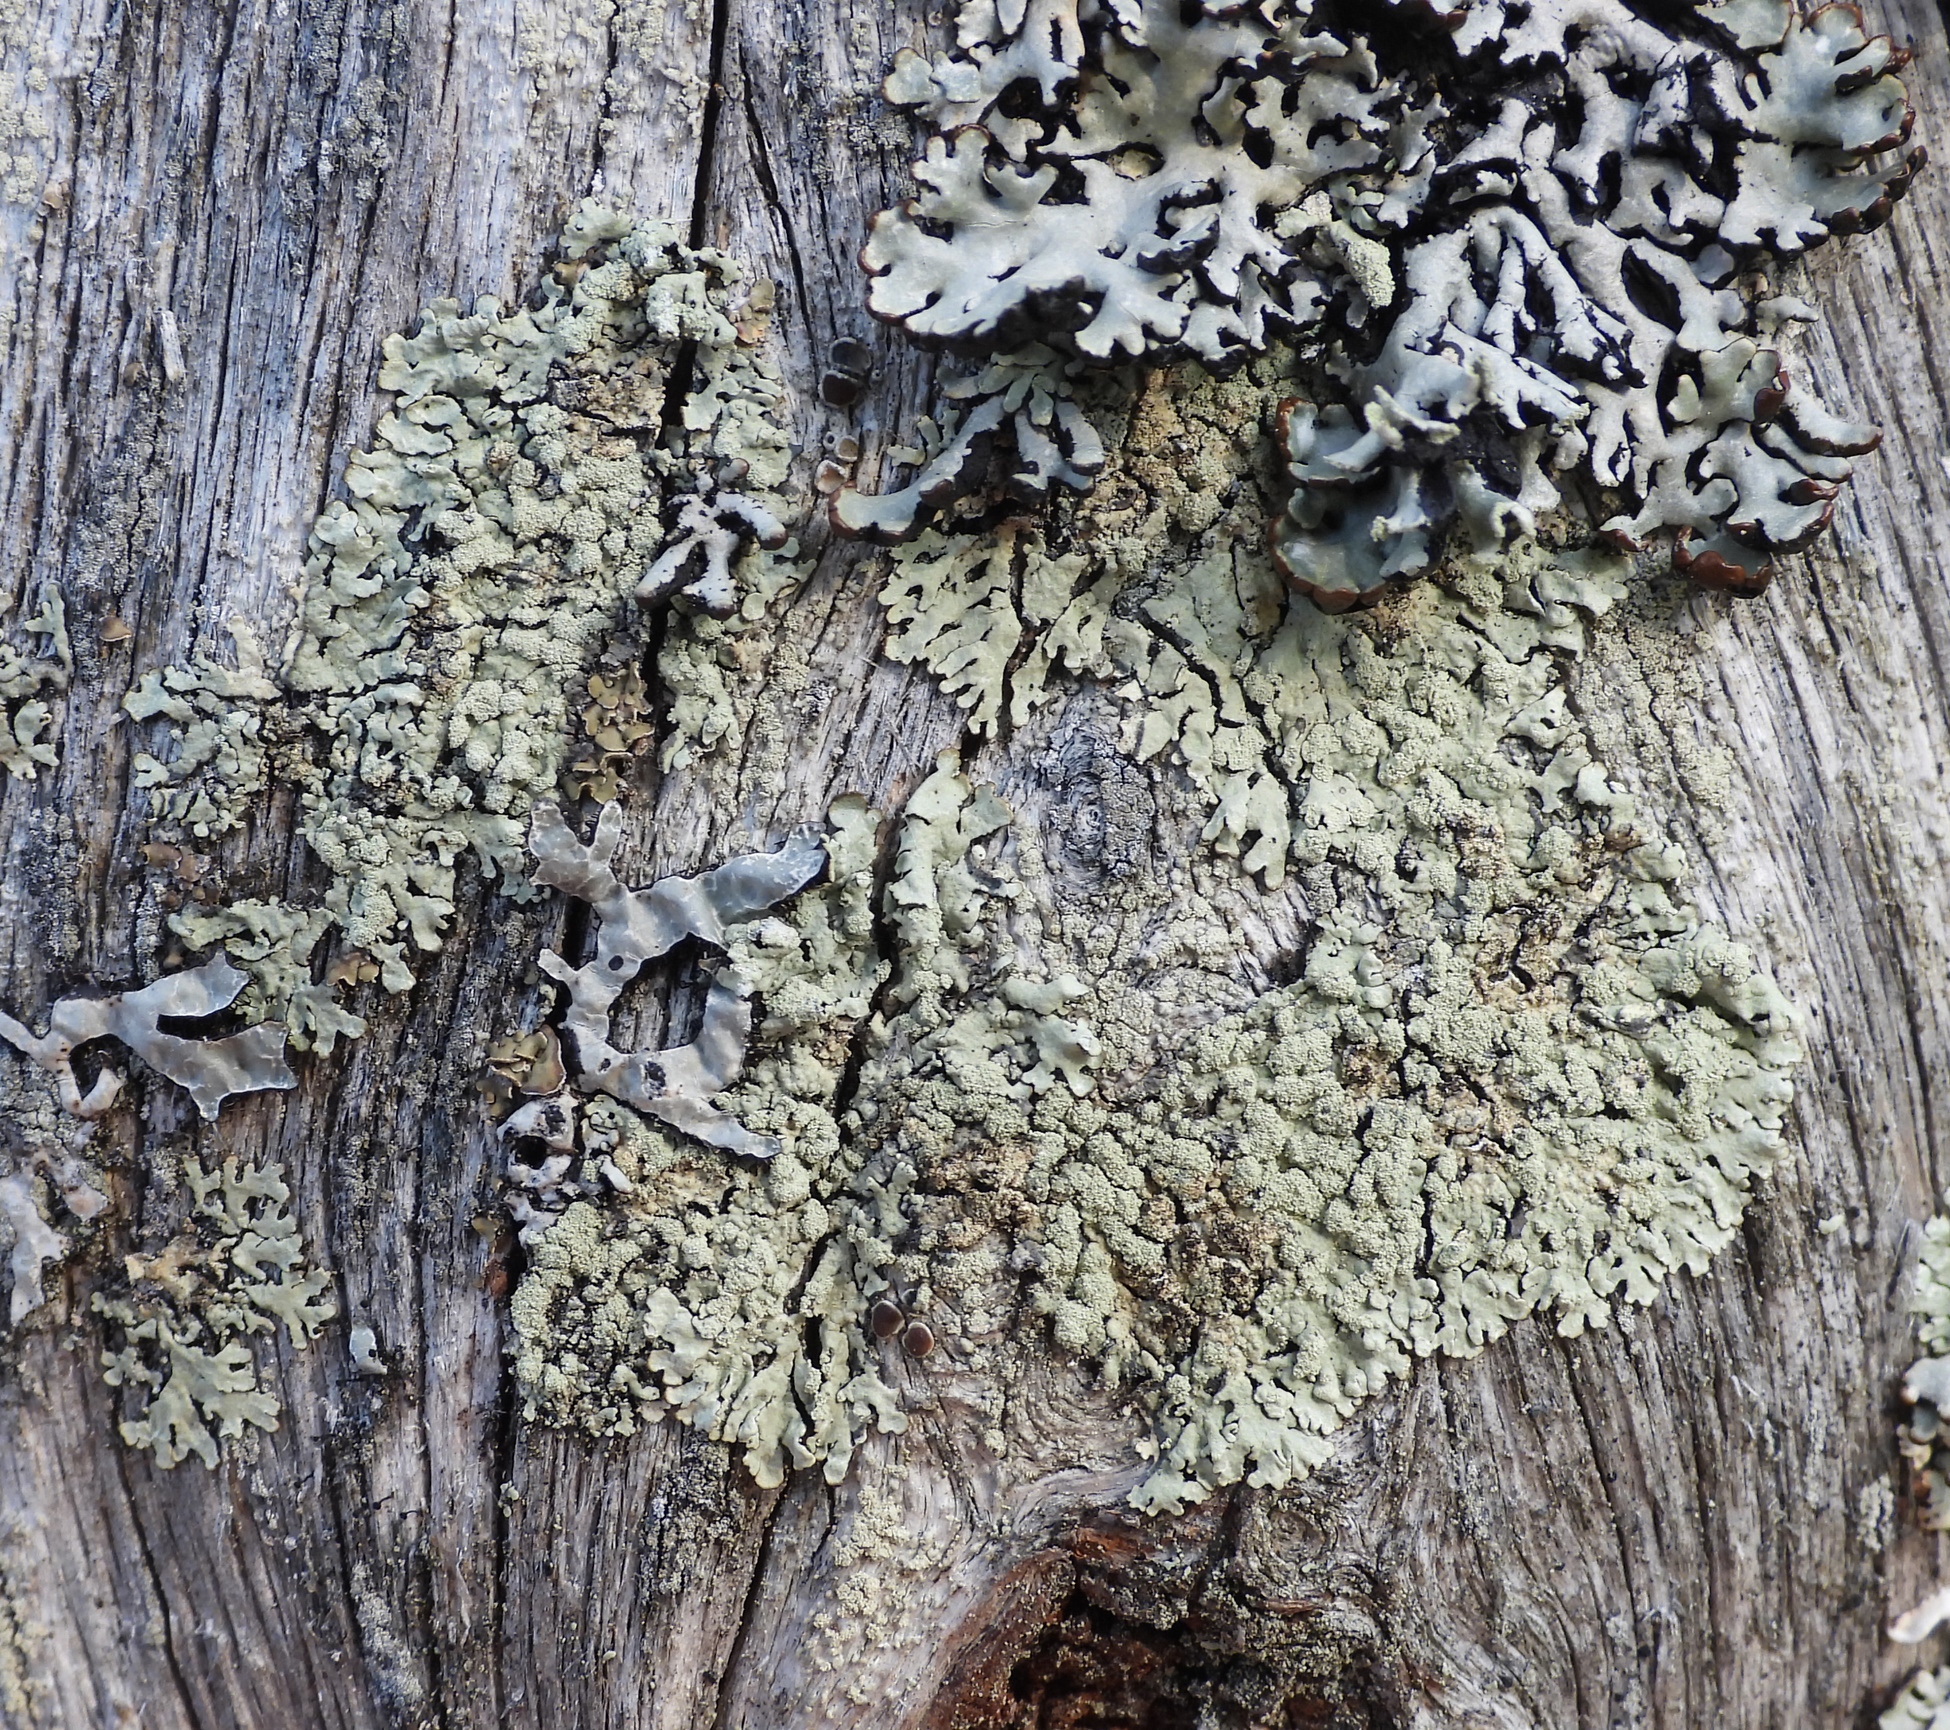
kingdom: Fungi
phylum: Ascomycota
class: Lecanoromycetes
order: Lecanorales
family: Parmeliaceae
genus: Parmeliopsis
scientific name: Parmeliopsis ambigua
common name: Green starburst lichen
